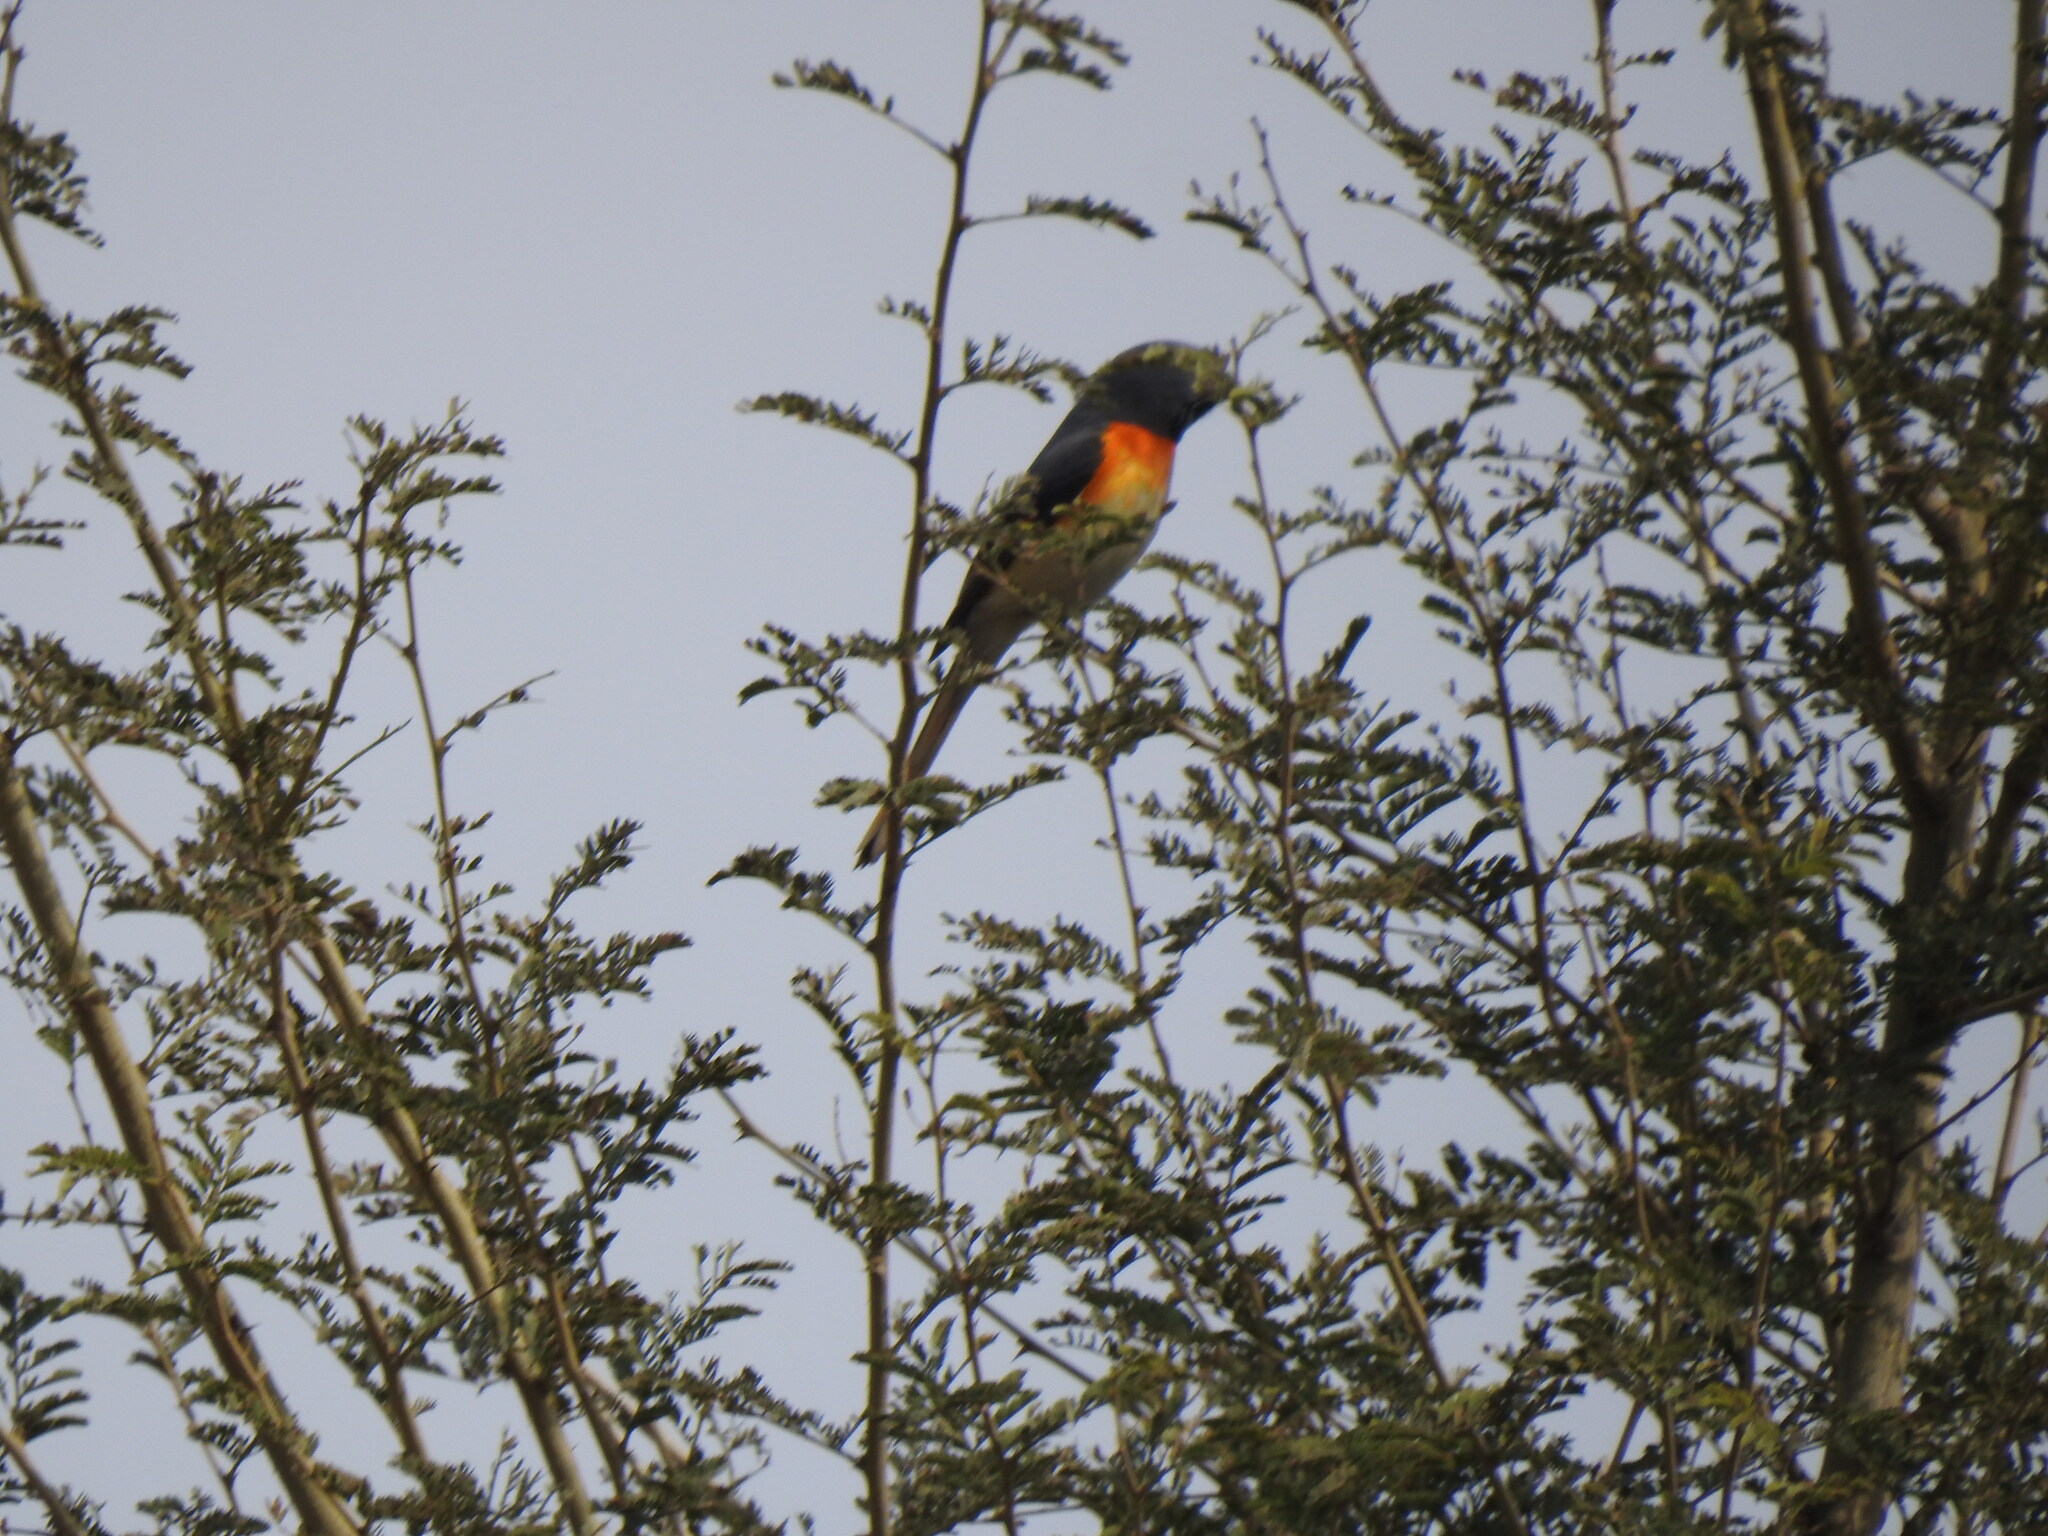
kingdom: Animalia
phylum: Chordata
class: Aves
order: Passeriformes
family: Campephagidae
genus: Pericrocotus
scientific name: Pericrocotus cinnamomeus
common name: Small minivet
